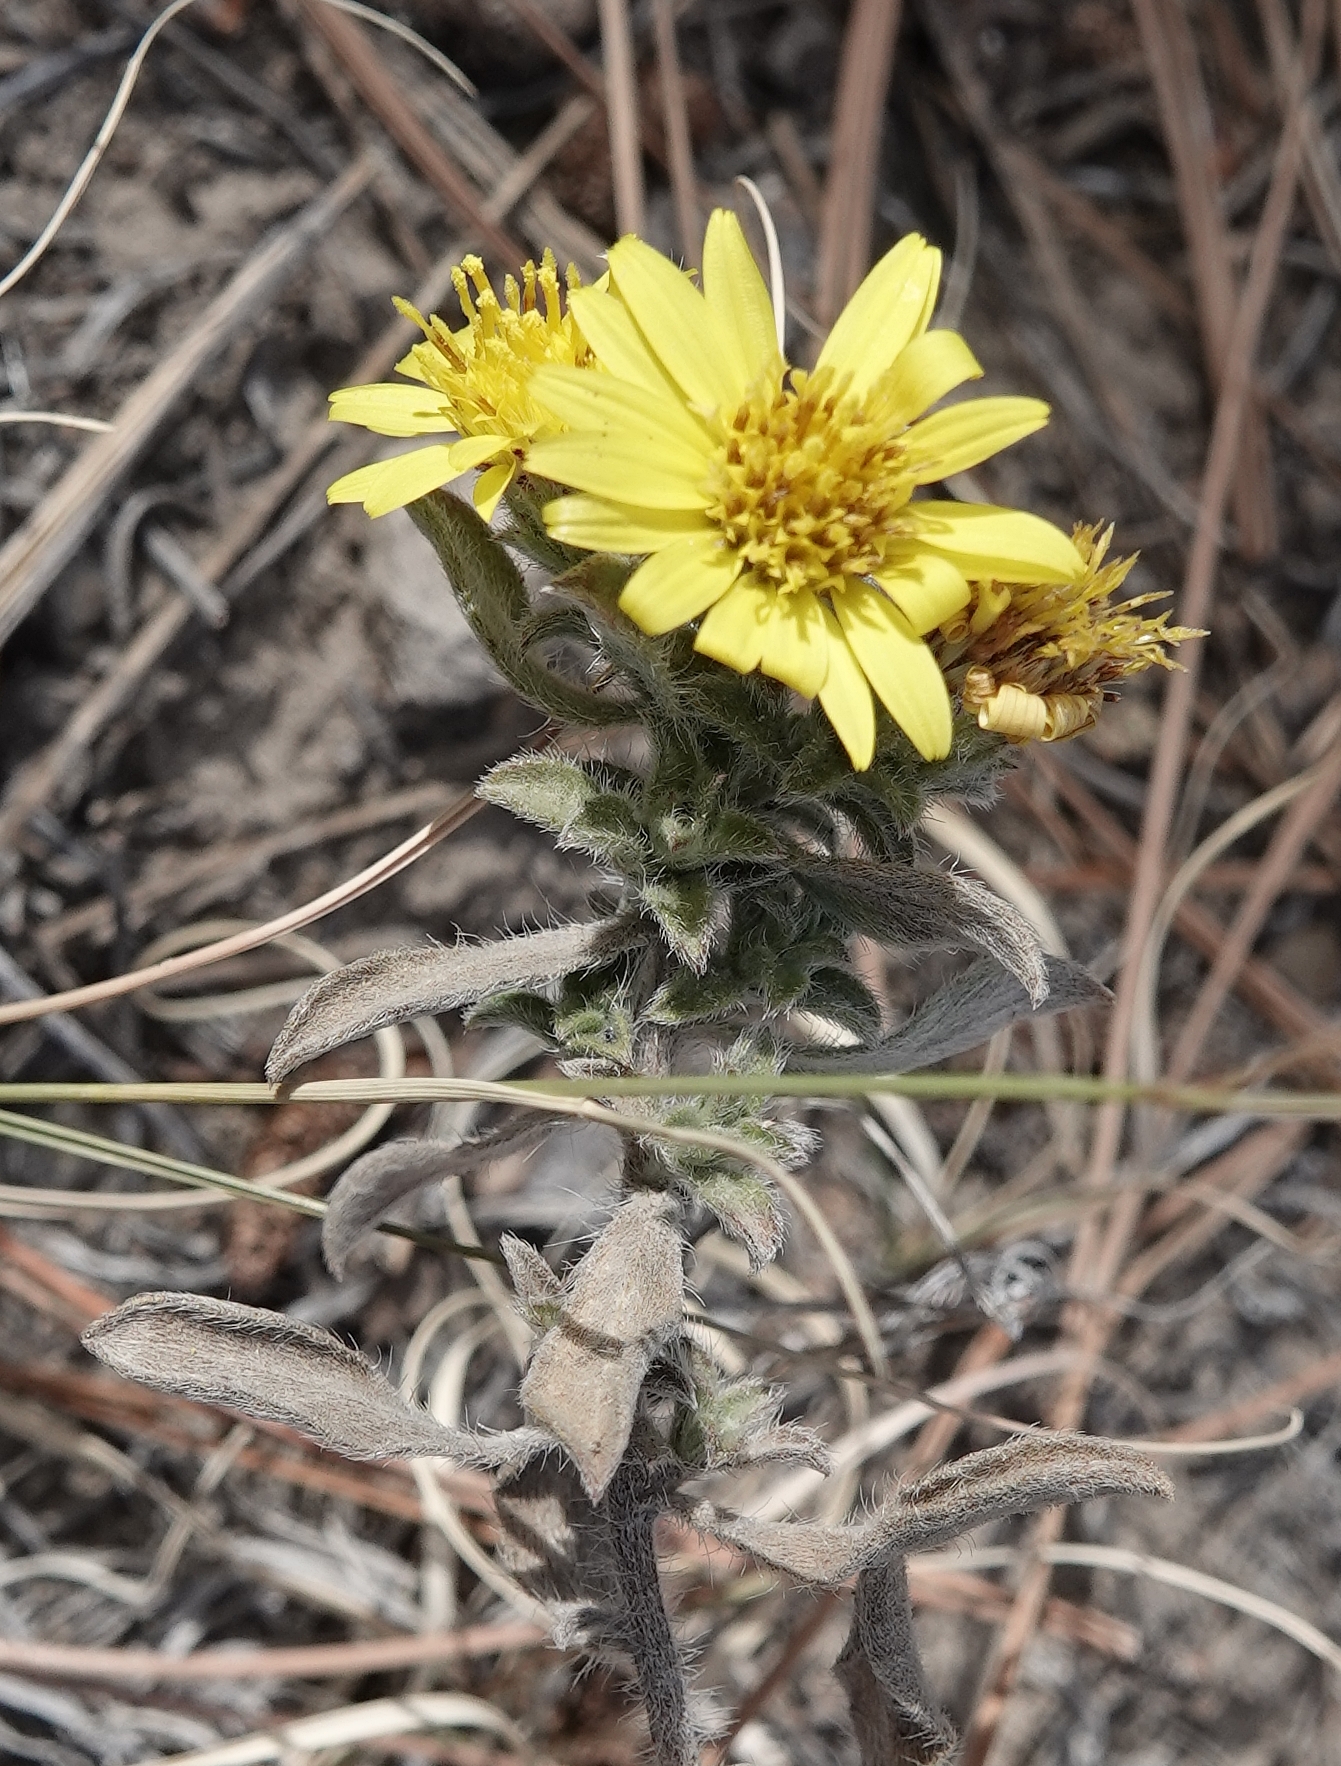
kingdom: Plantae
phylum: Tracheophyta
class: Magnoliopsida
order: Asterales
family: Asteraceae
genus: Heterotheca
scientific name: Heterotheca villosa
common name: Hairy false goldenaster
